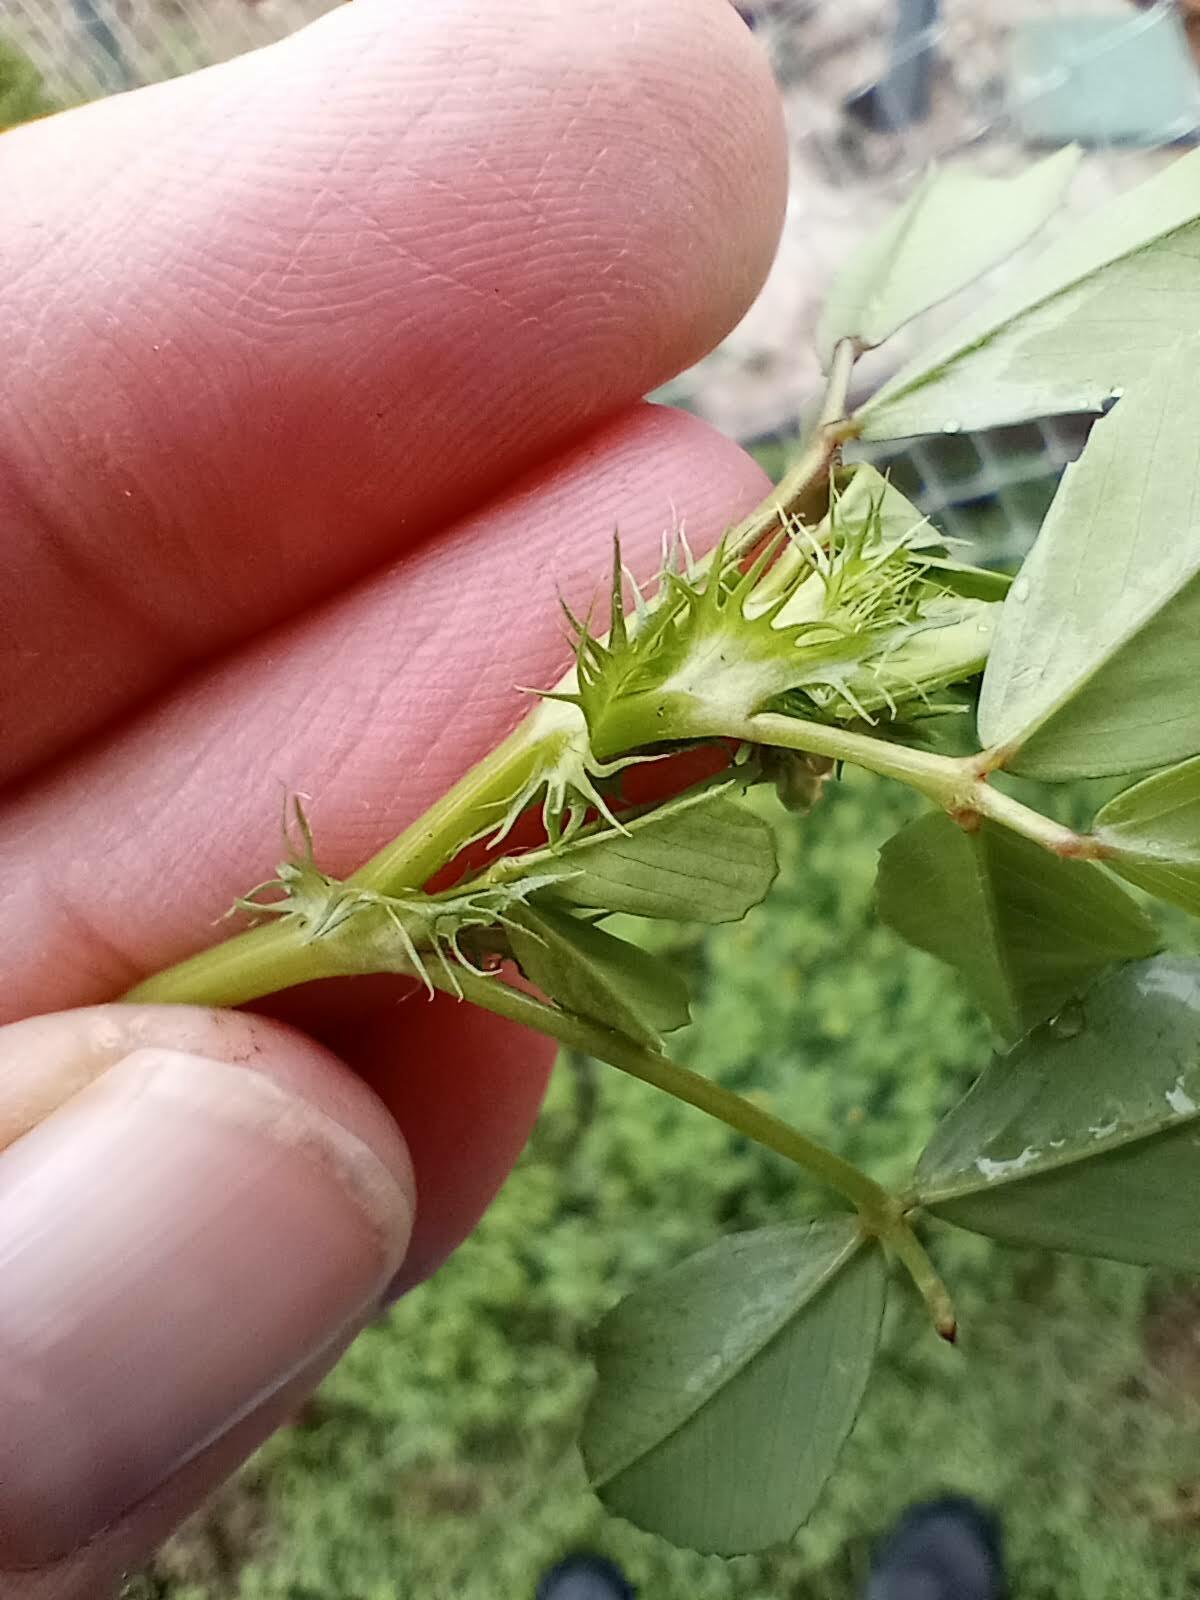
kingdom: Plantae
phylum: Tracheophyta
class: Magnoliopsida
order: Fabales
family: Fabaceae
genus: Medicago
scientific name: Medicago polymorpha
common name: Burclover
